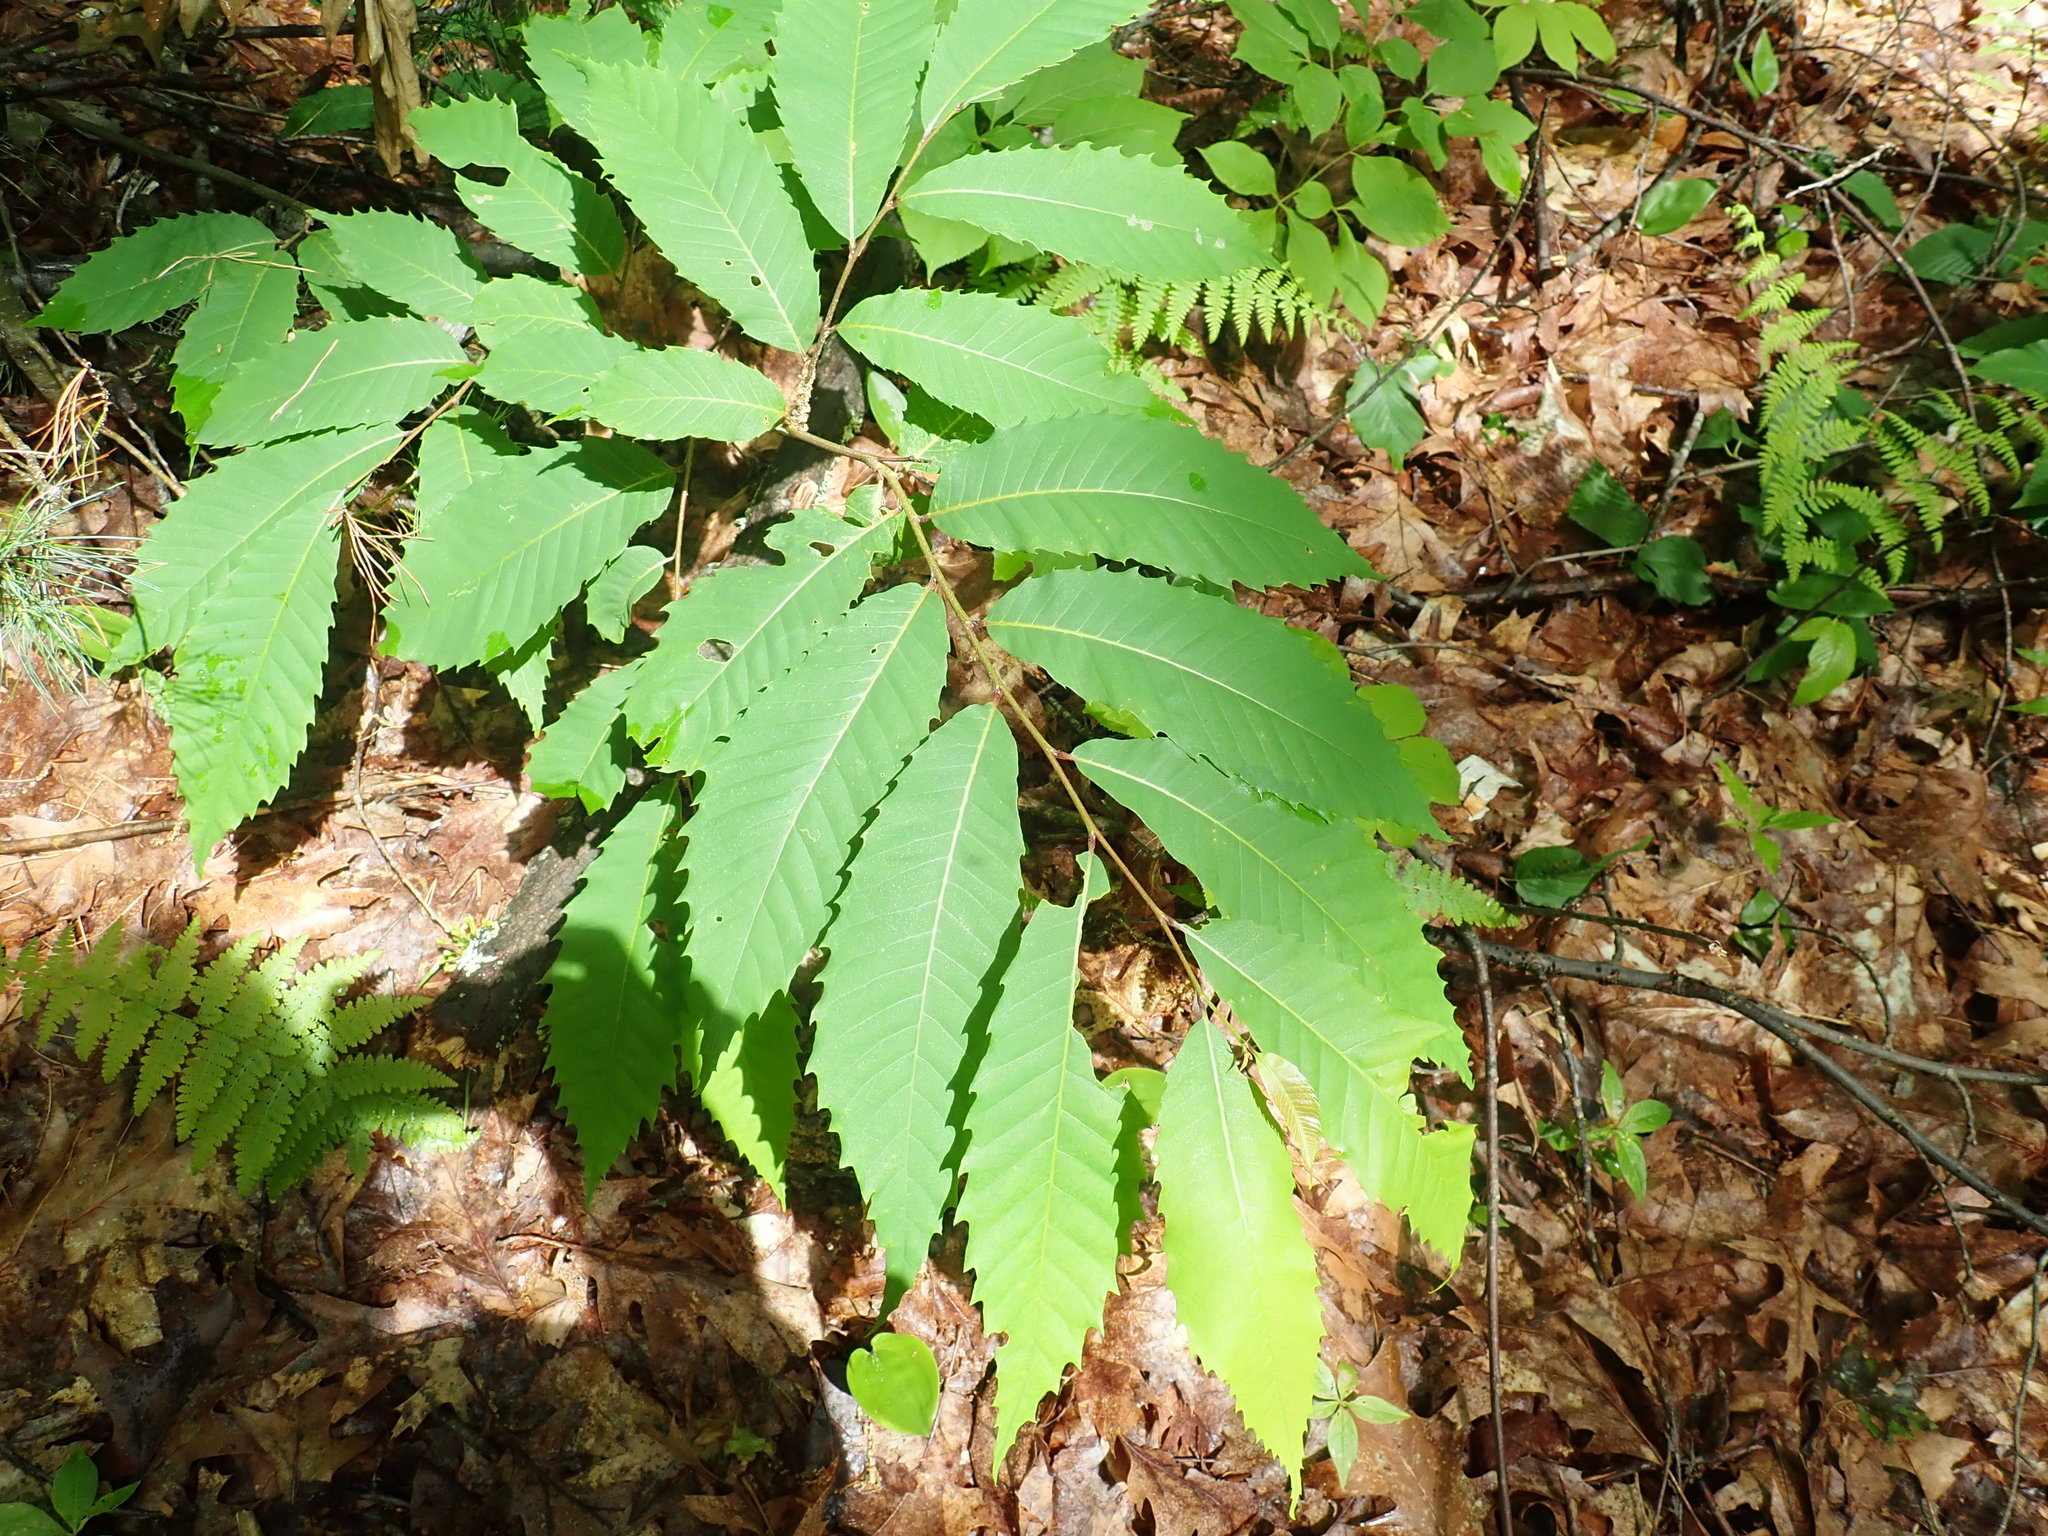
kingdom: Plantae
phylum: Tracheophyta
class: Magnoliopsida
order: Fagales
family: Fagaceae
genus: Castanea
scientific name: Castanea dentata
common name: American chestnut
